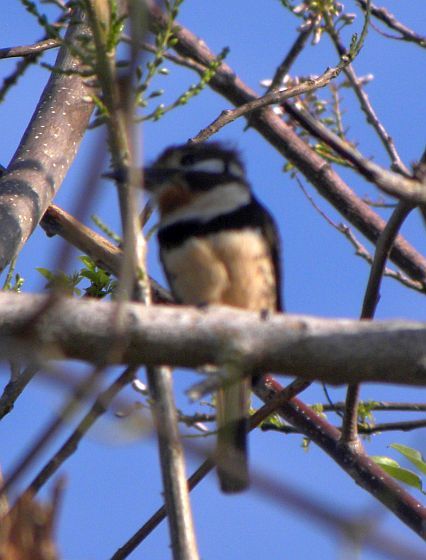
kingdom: Animalia
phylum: Chordata
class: Aves
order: Piciformes
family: Bucconidae
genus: Hypnelus
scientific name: Hypnelus ruficollis
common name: Russet-throated puffbird
